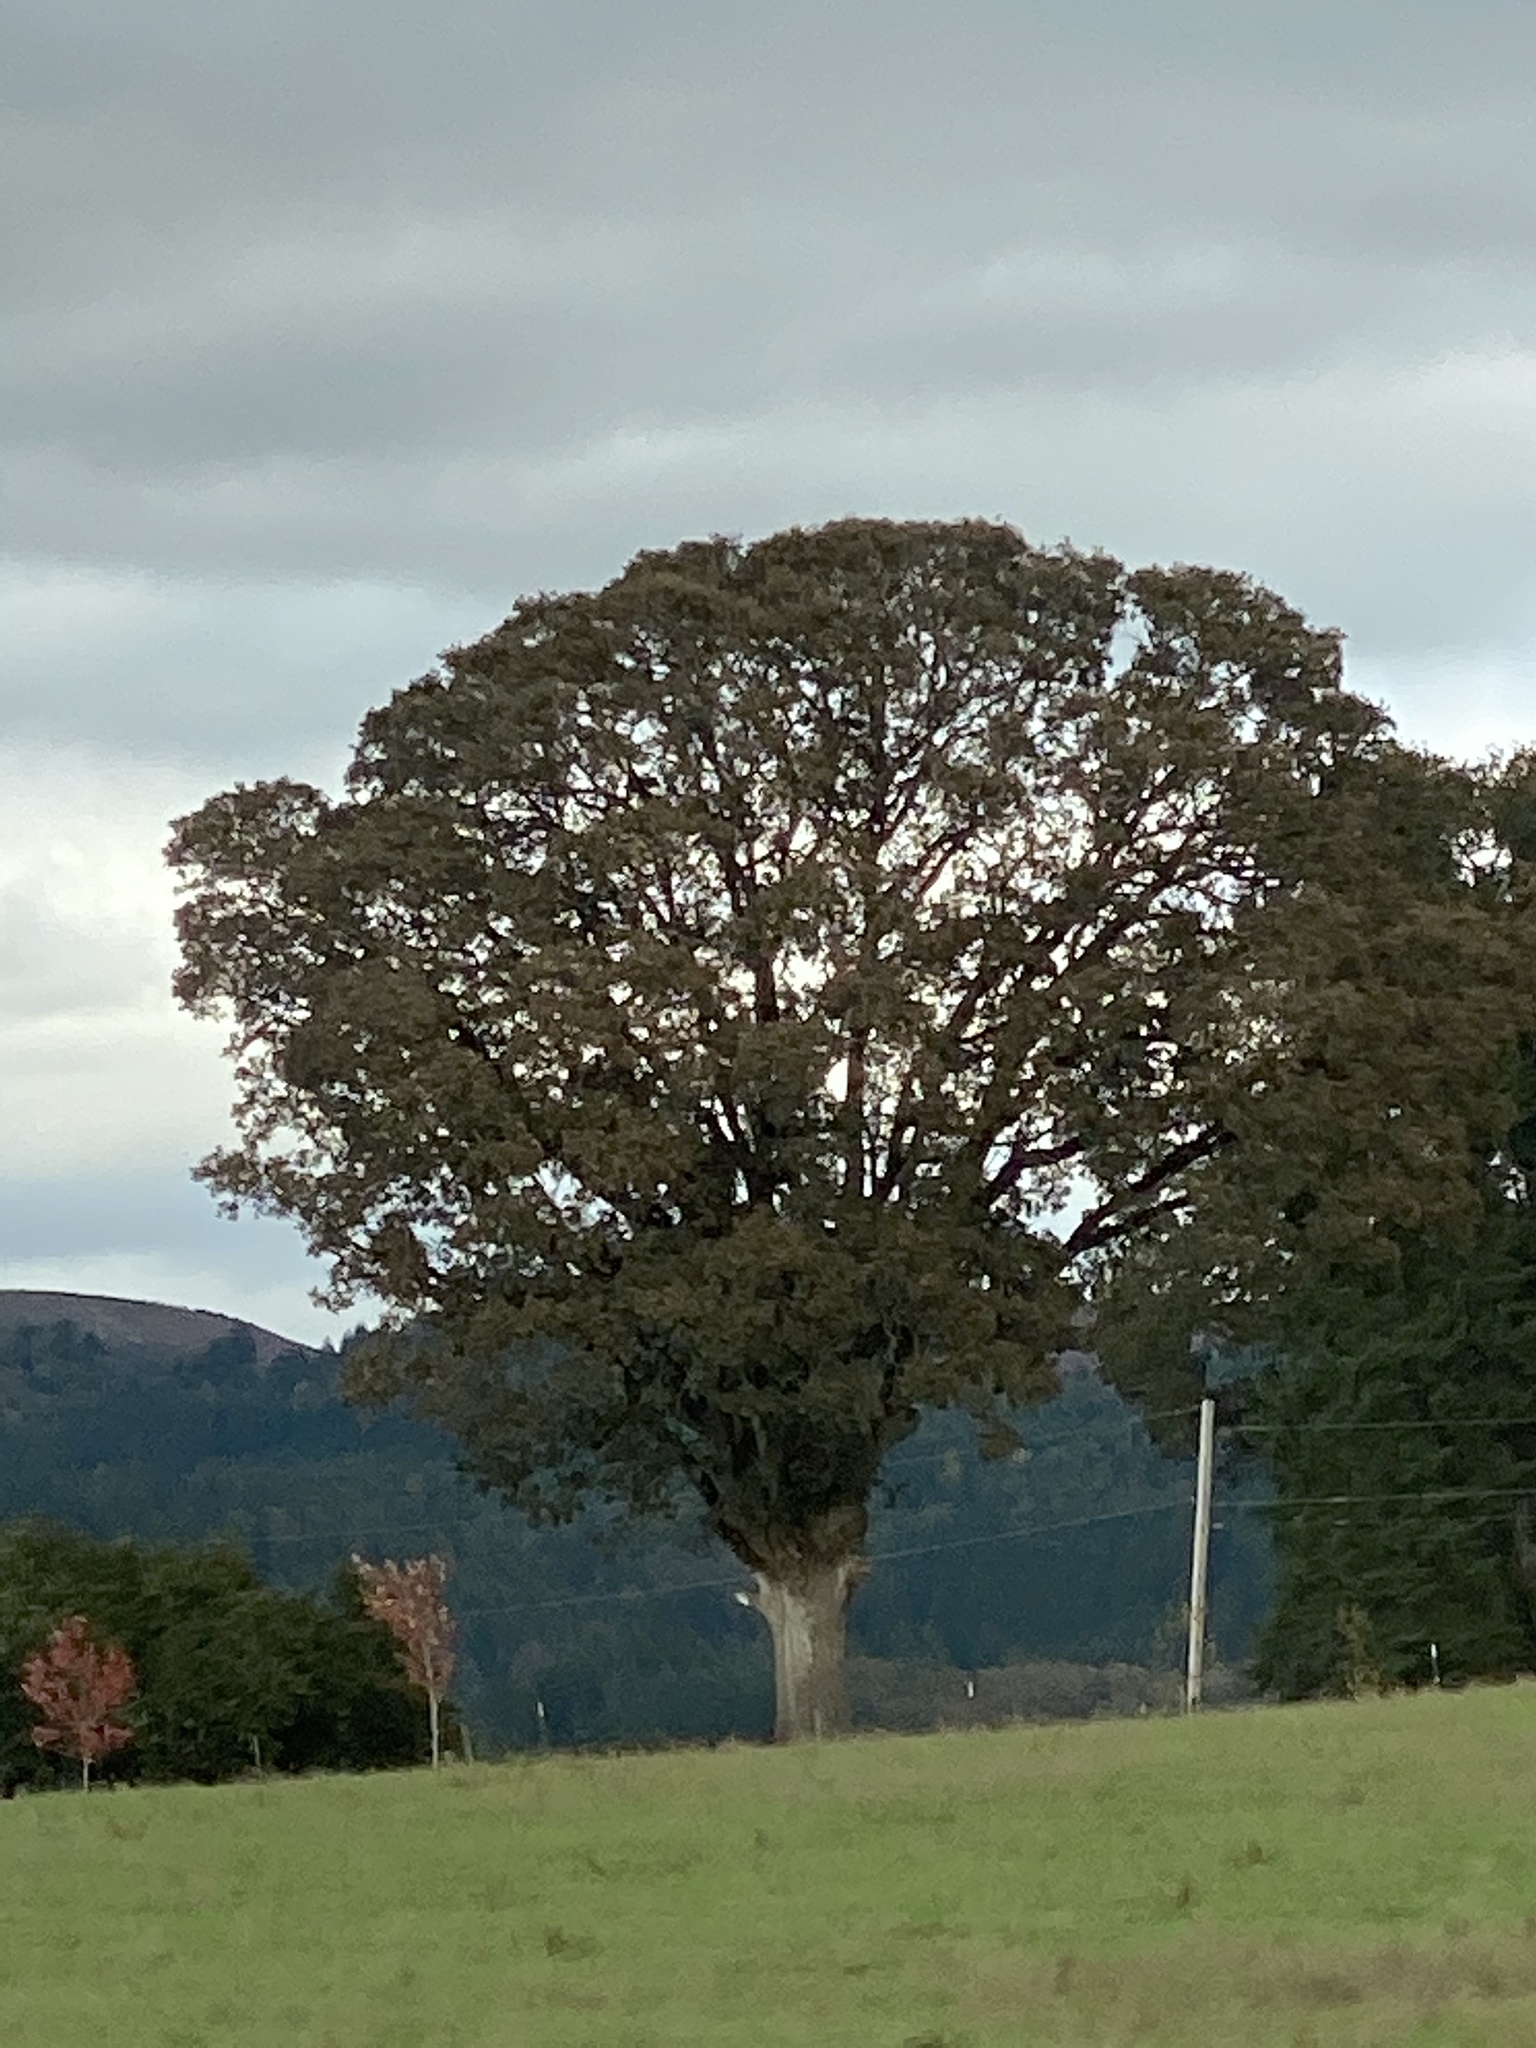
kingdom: Plantae
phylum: Tracheophyta
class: Magnoliopsida
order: Fagales
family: Fagaceae
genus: Quercus
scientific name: Quercus garryana
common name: Garry oak
